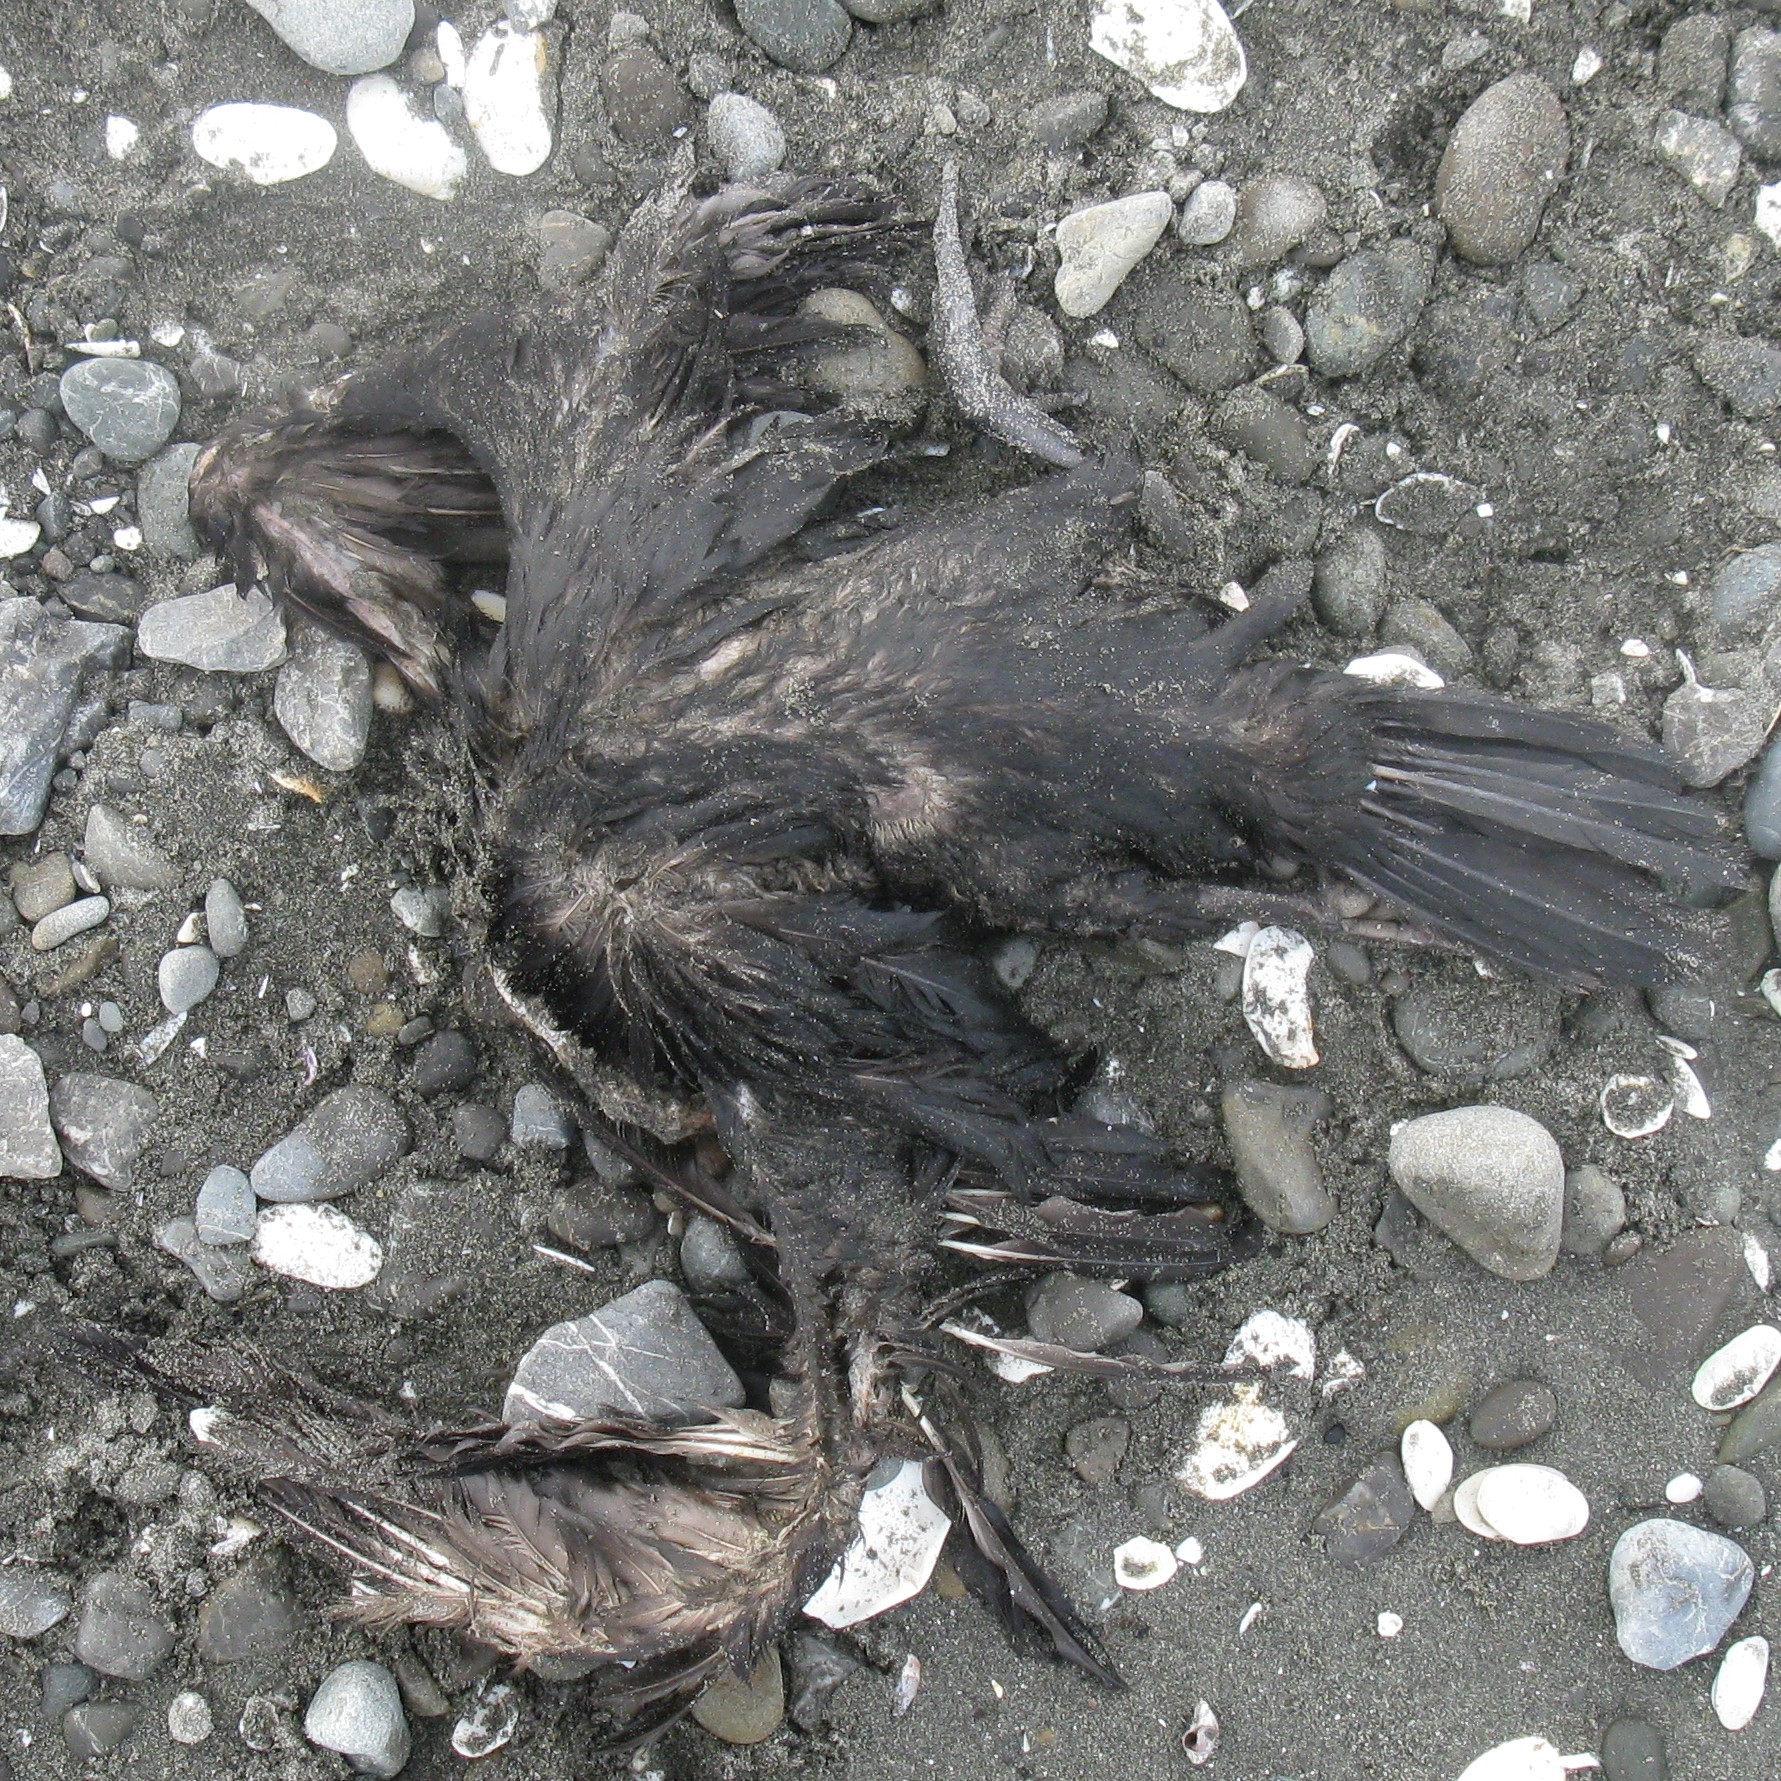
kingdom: Animalia
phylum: Chordata
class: Aves
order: Suliformes
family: Phalacrocoracidae
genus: Phalacrocorax
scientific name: Phalacrocorax sulcirostris
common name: Little black cormorant
